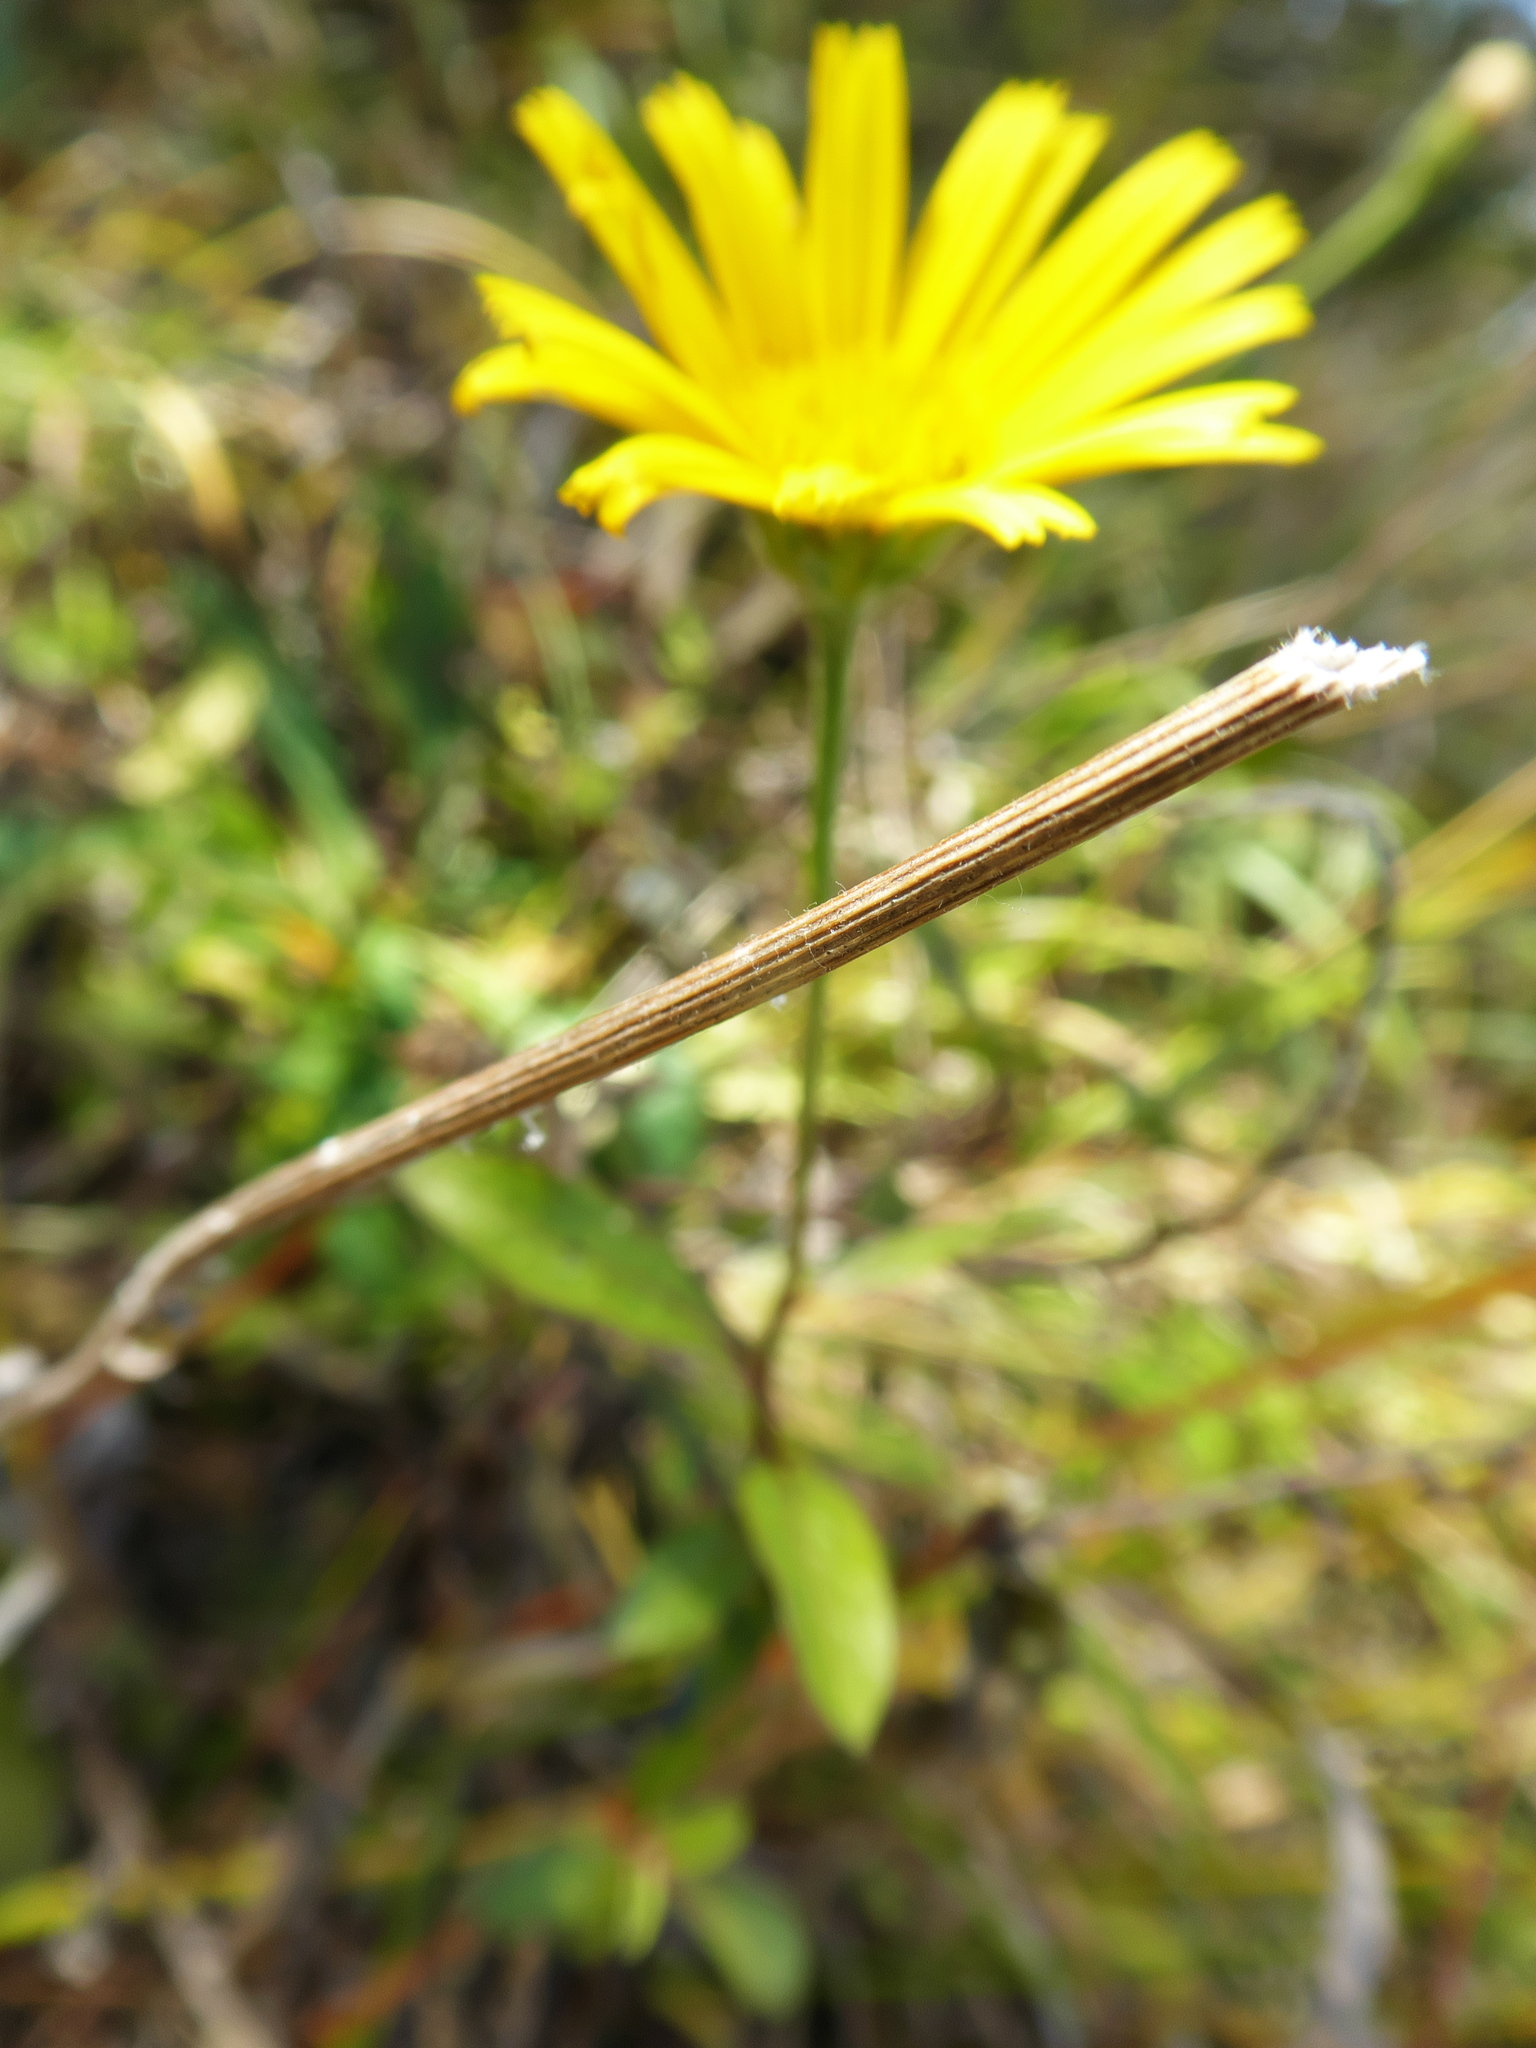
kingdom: Plantae
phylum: Tracheophyta
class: Magnoliopsida
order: Asterales
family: Asteraceae
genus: Buphthalmum
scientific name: Buphthalmum salicifolium
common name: Willow-leaved yellow-oxeye
